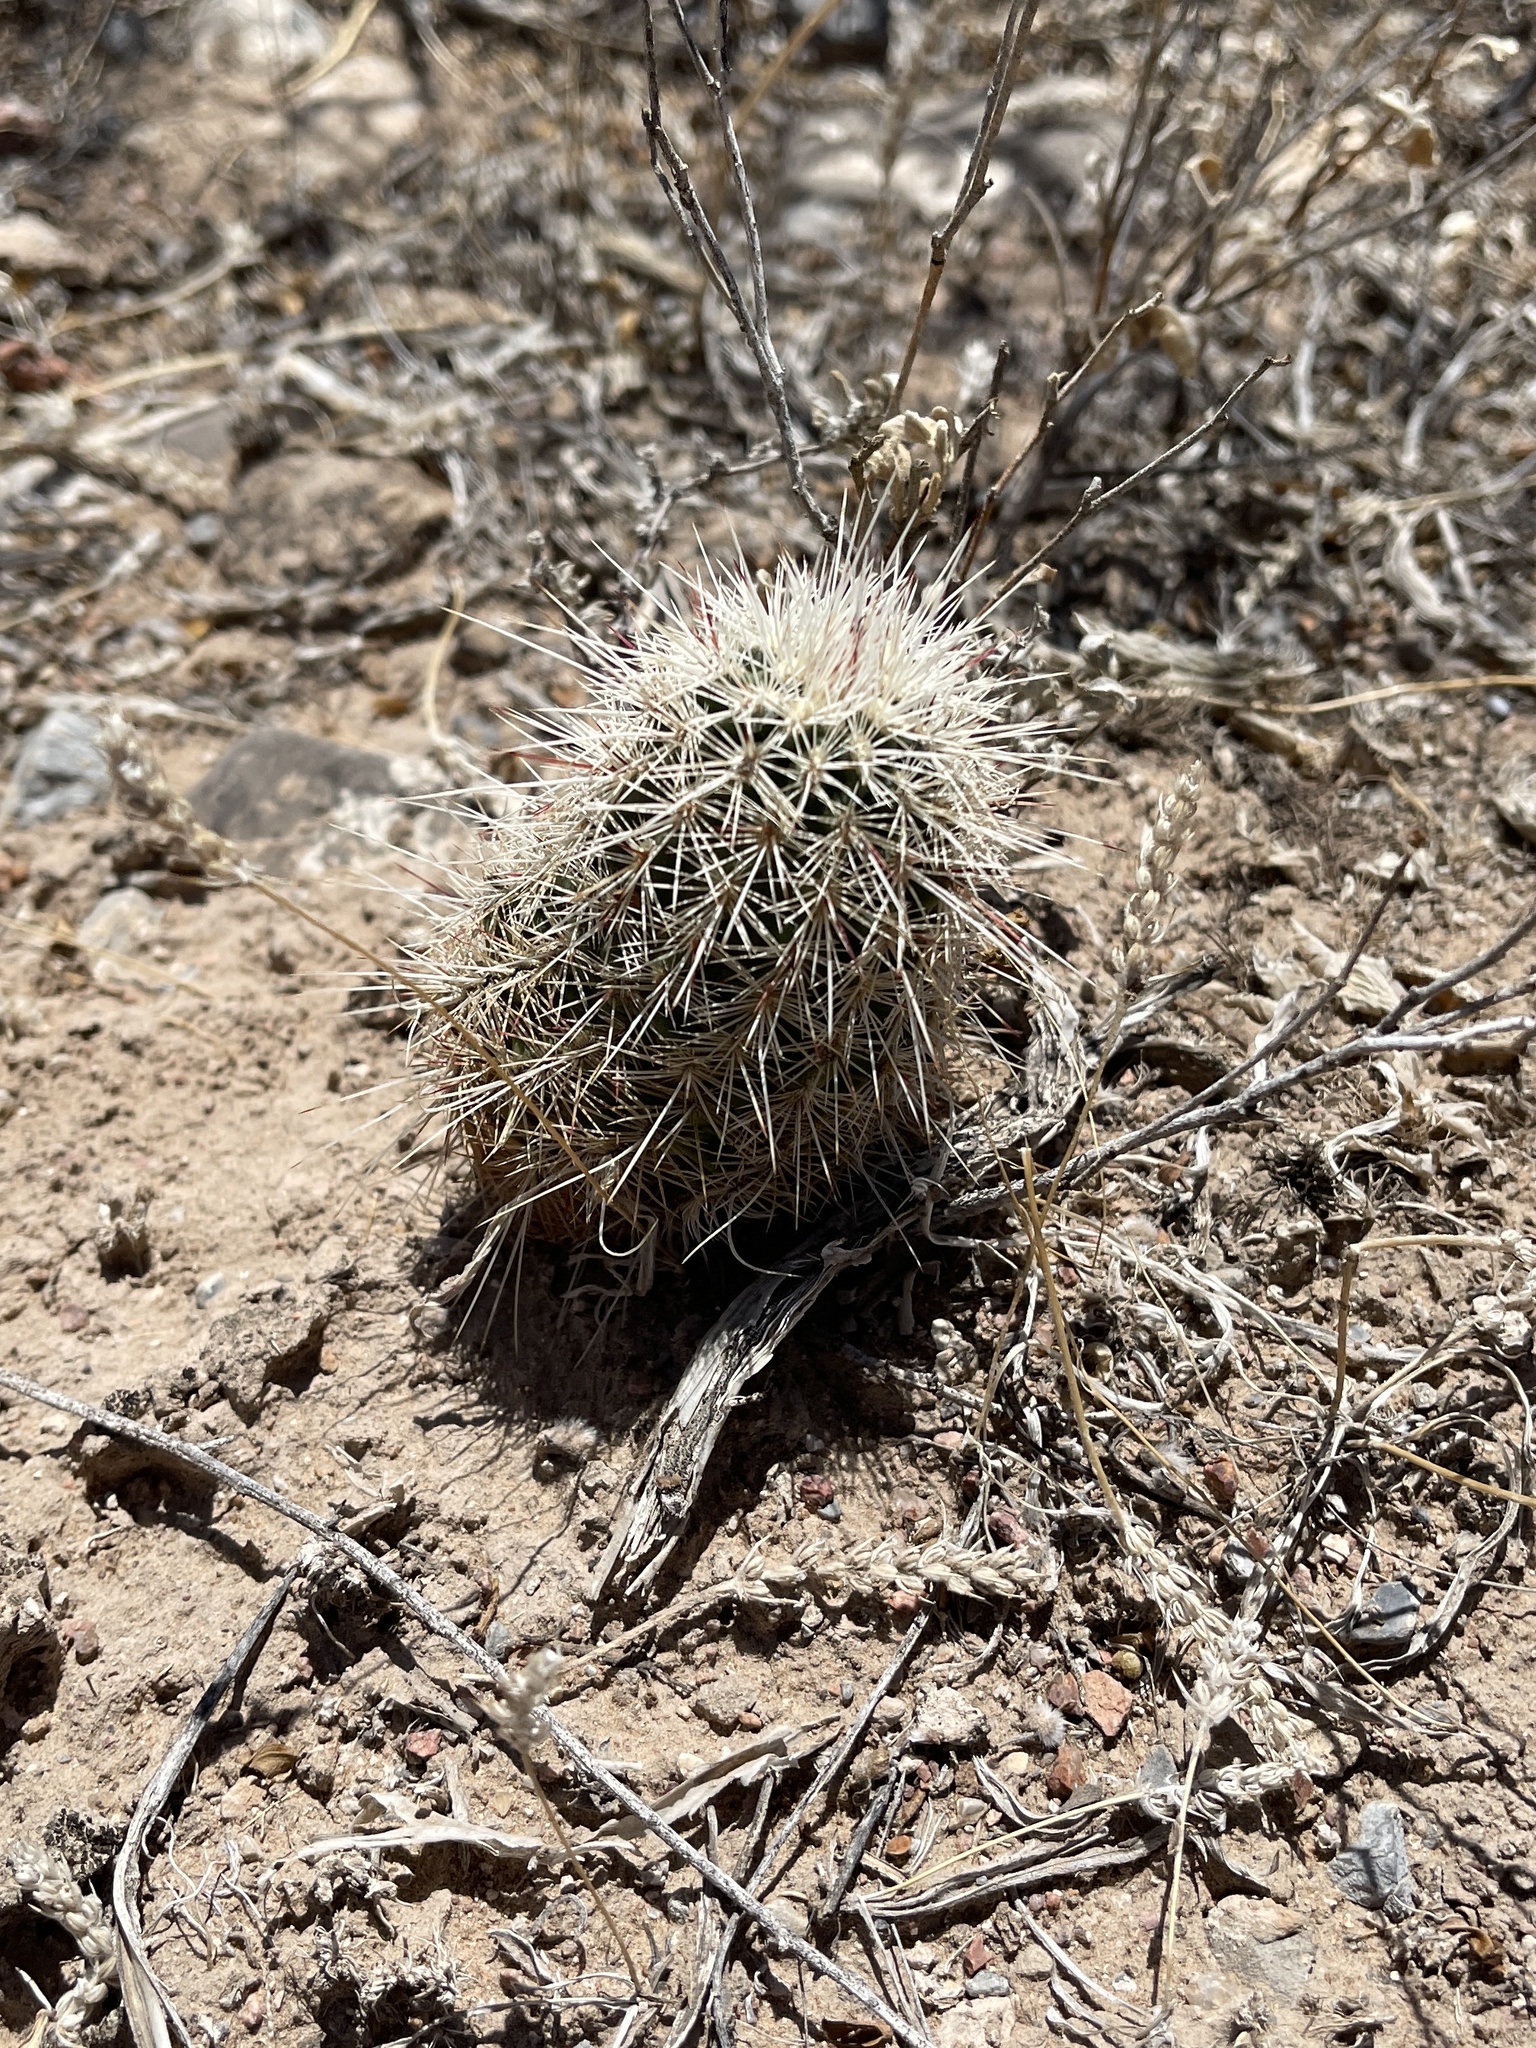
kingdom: Plantae
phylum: Tracheophyta
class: Magnoliopsida
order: Caryophyllales
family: Cactaceae
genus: Echinocereus
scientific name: Echinocereus viridiflorus
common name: Nylon hedgehog cactus
